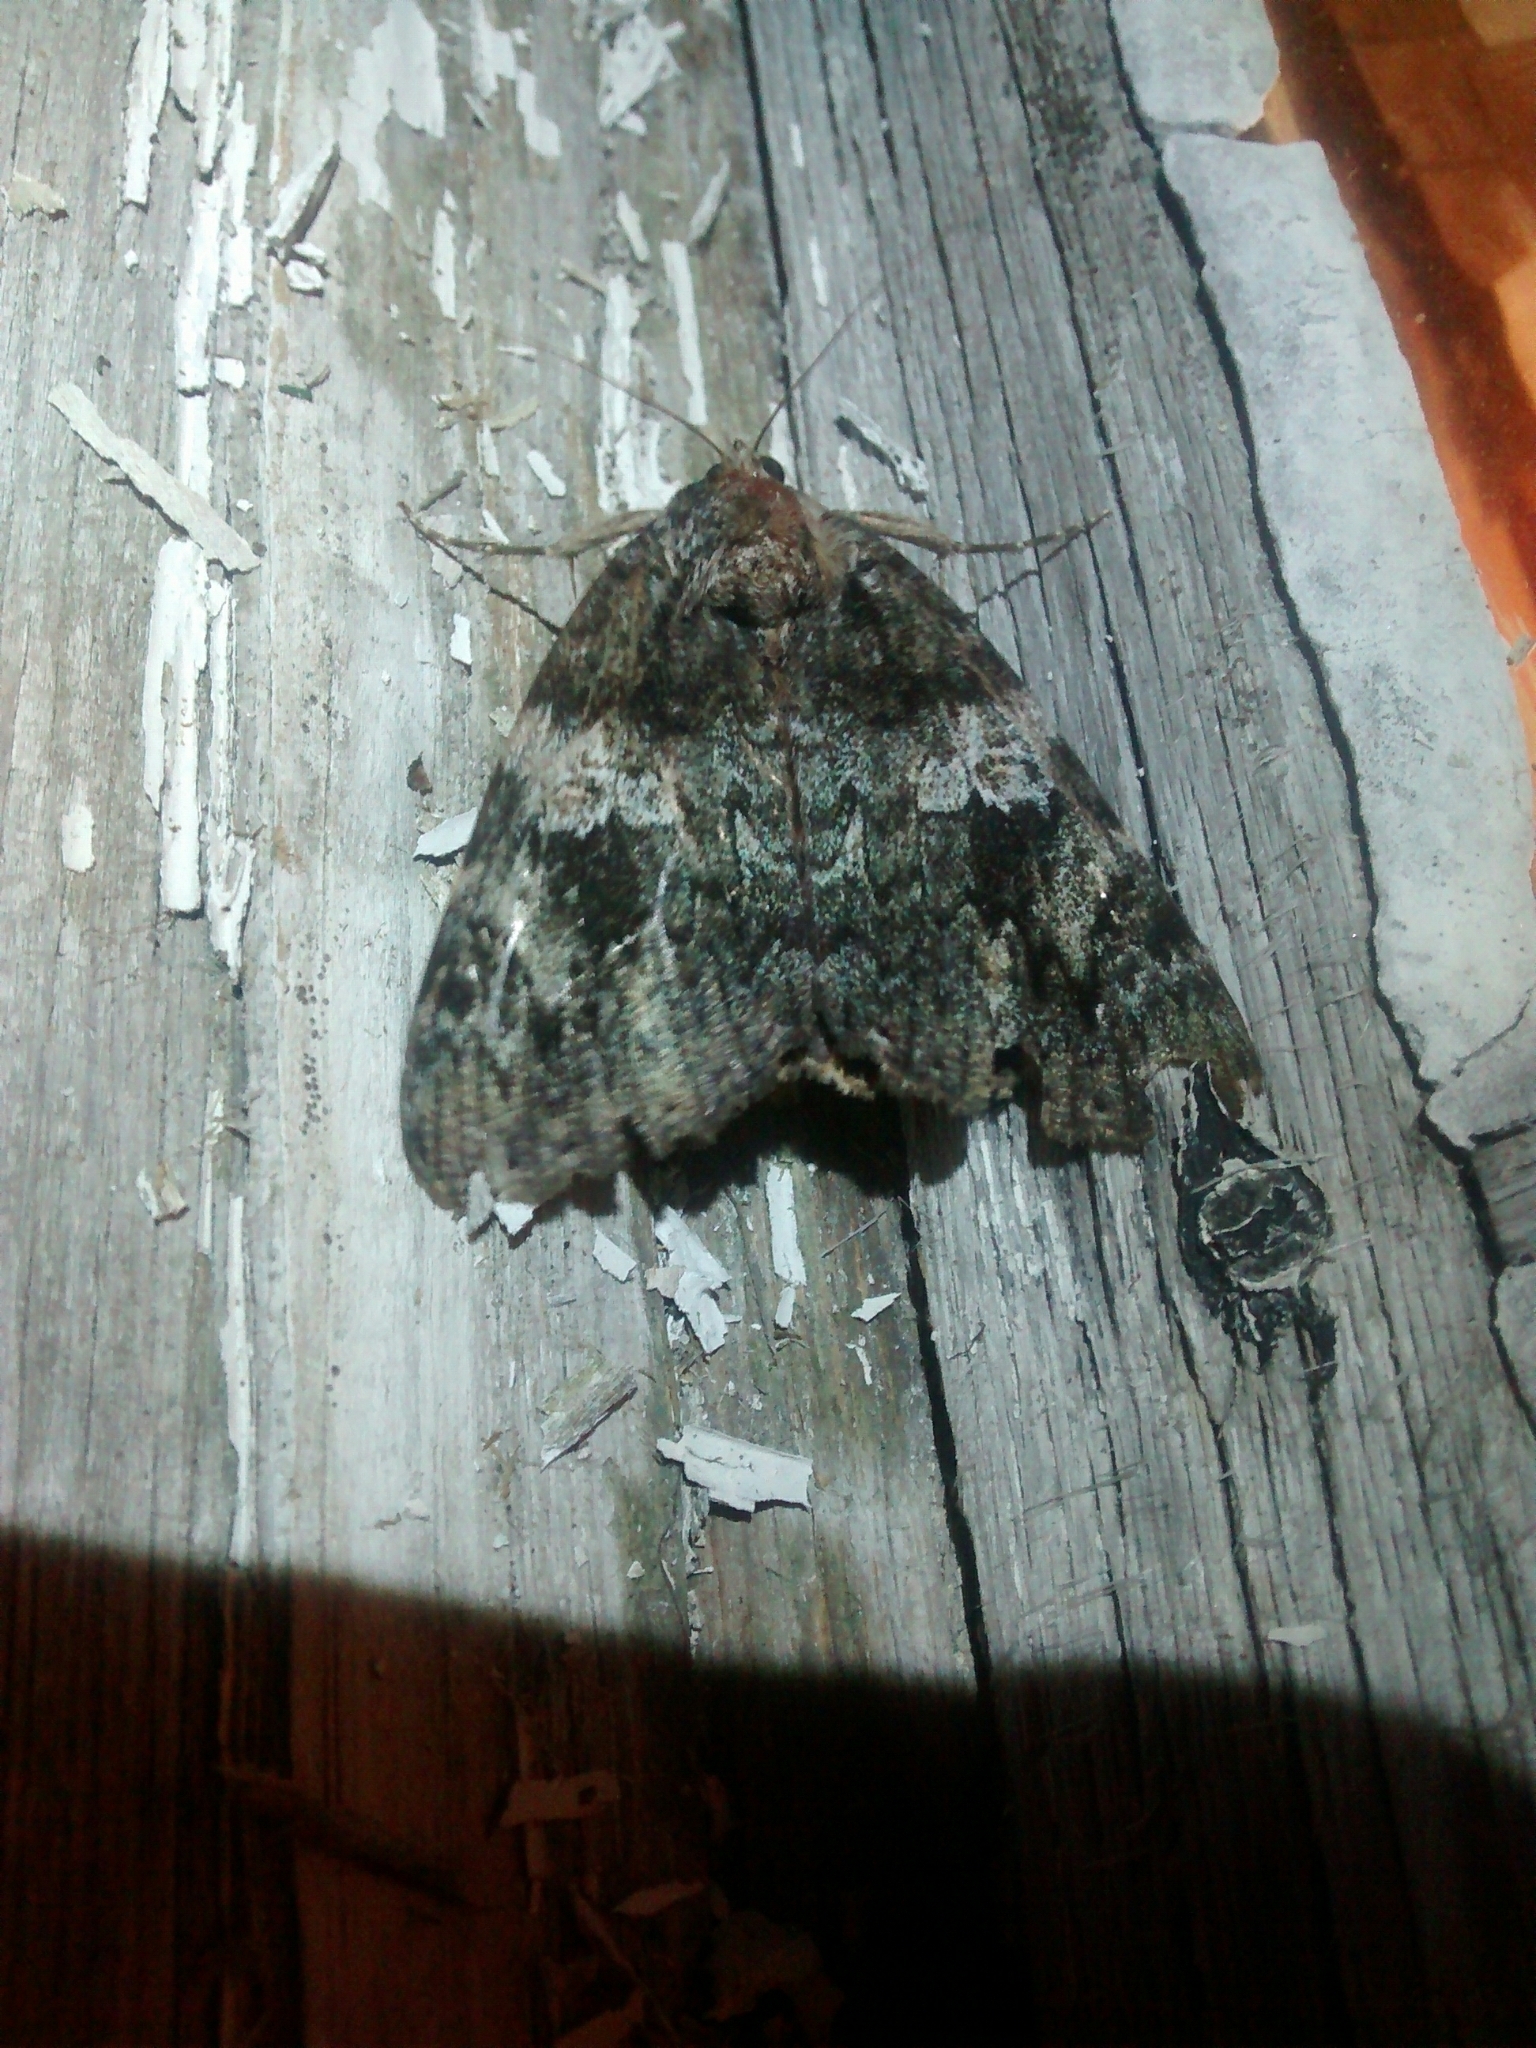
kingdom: Animalia
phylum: Arthropoda
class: Insecta
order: Lepidoptera
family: Erebidae
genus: Catocala
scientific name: Catocala ilia
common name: Ilia underwing
